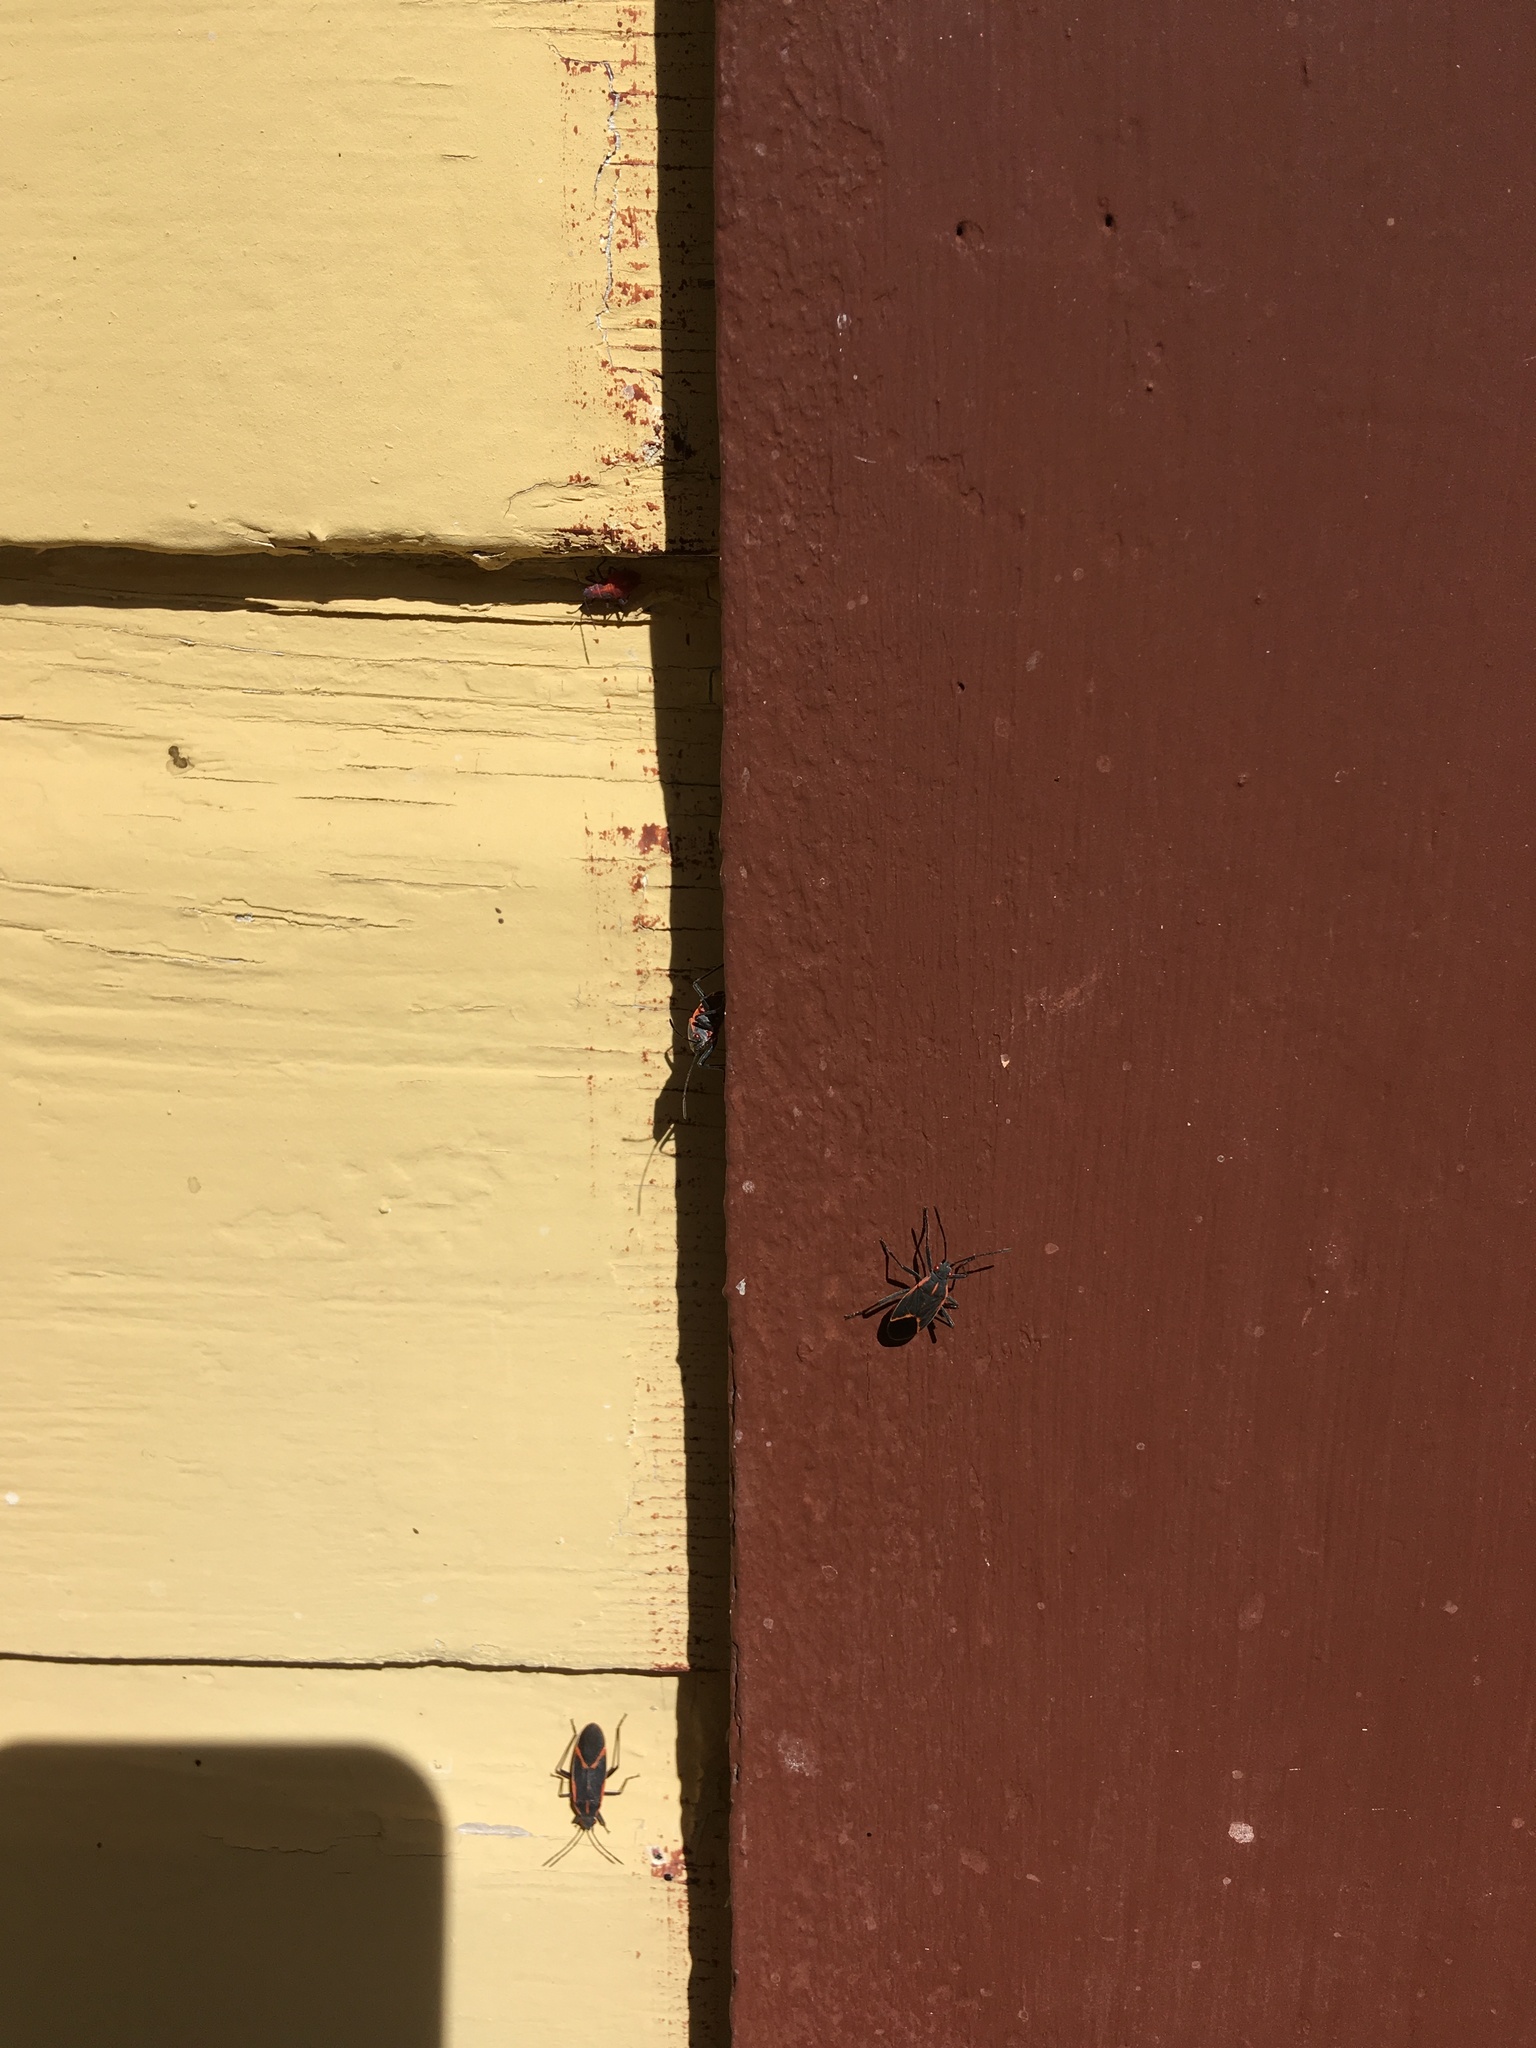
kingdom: Animalia
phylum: Arthropoda
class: Insecta
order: Hemiptera
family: Rhopalidae
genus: Boisea
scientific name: Boisea trivittata
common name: Boxelder bug
